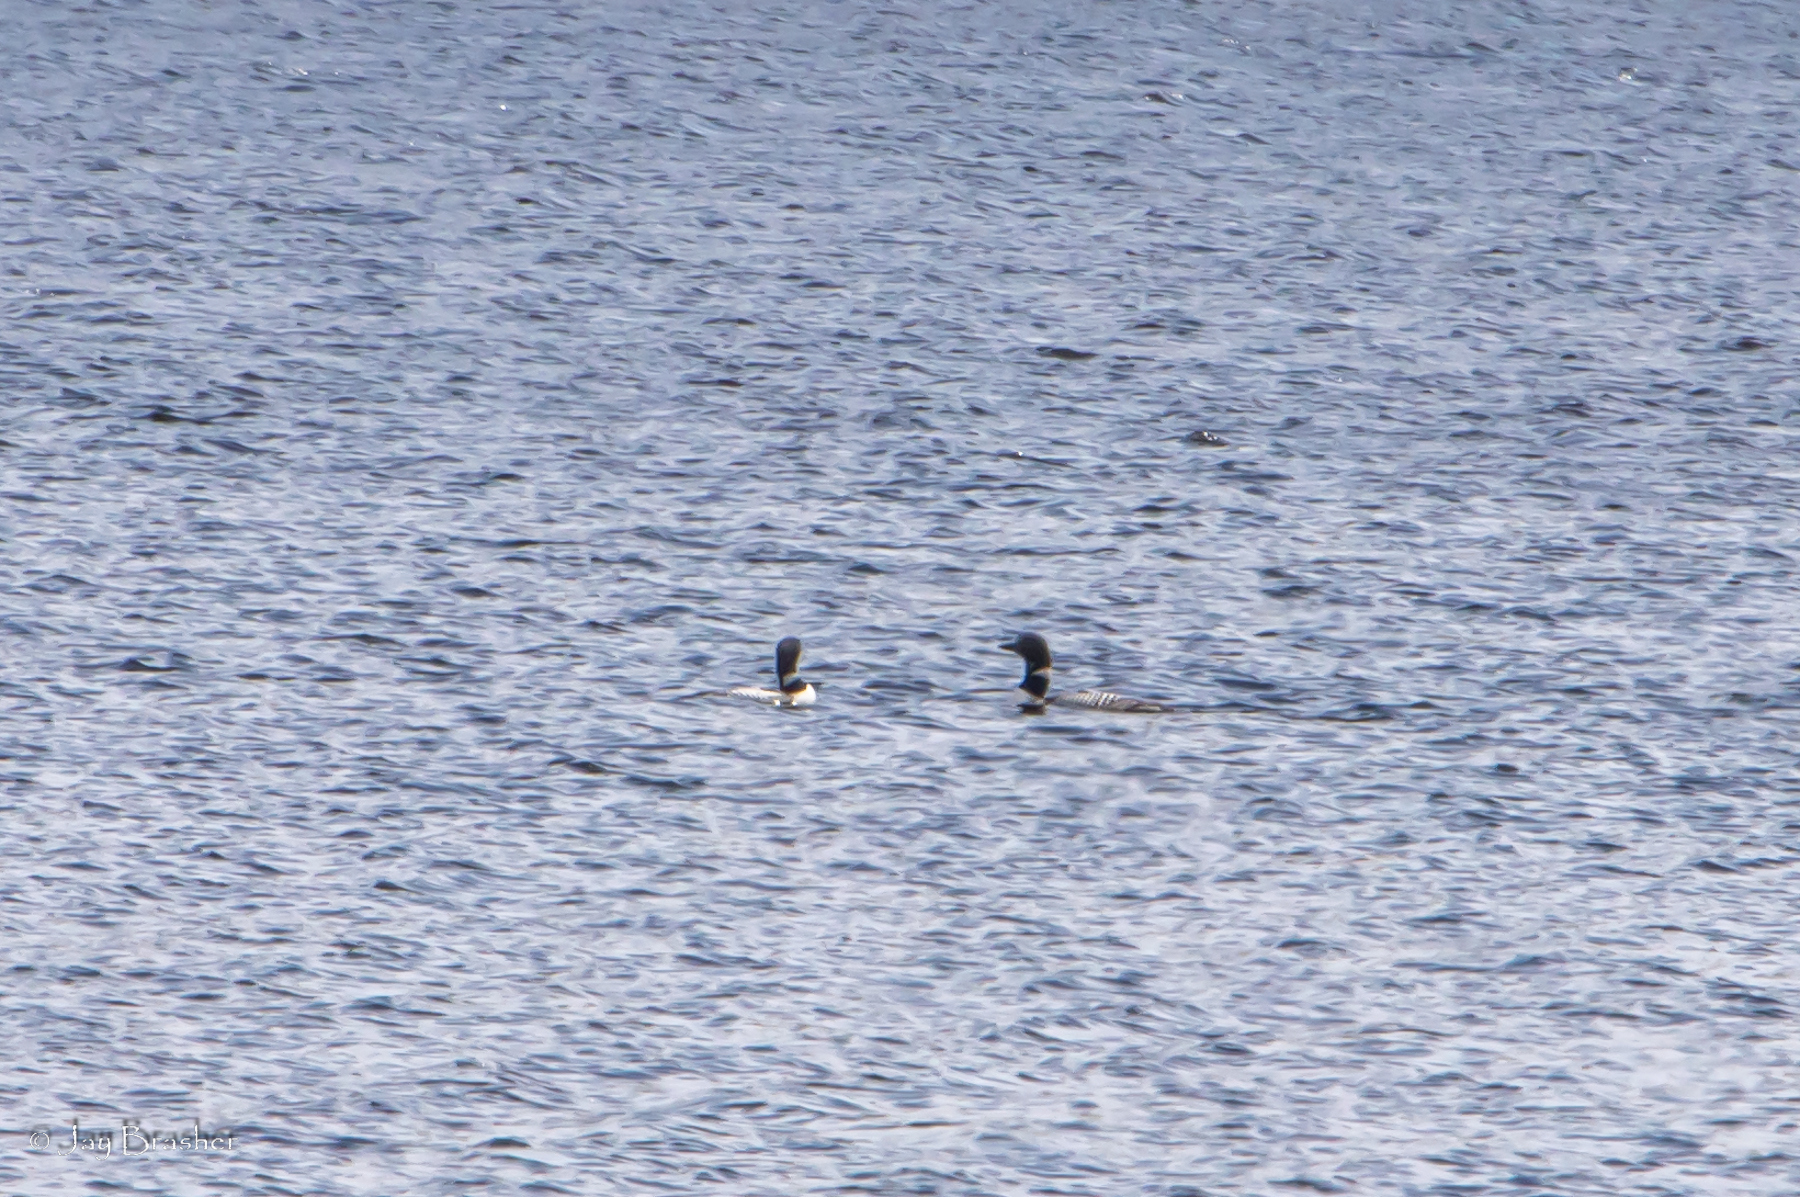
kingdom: Animalia
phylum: Chordata
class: Aves
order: Gaviiformes
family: Gaviidae
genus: Gavia
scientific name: Gavia immer
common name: Common loon
